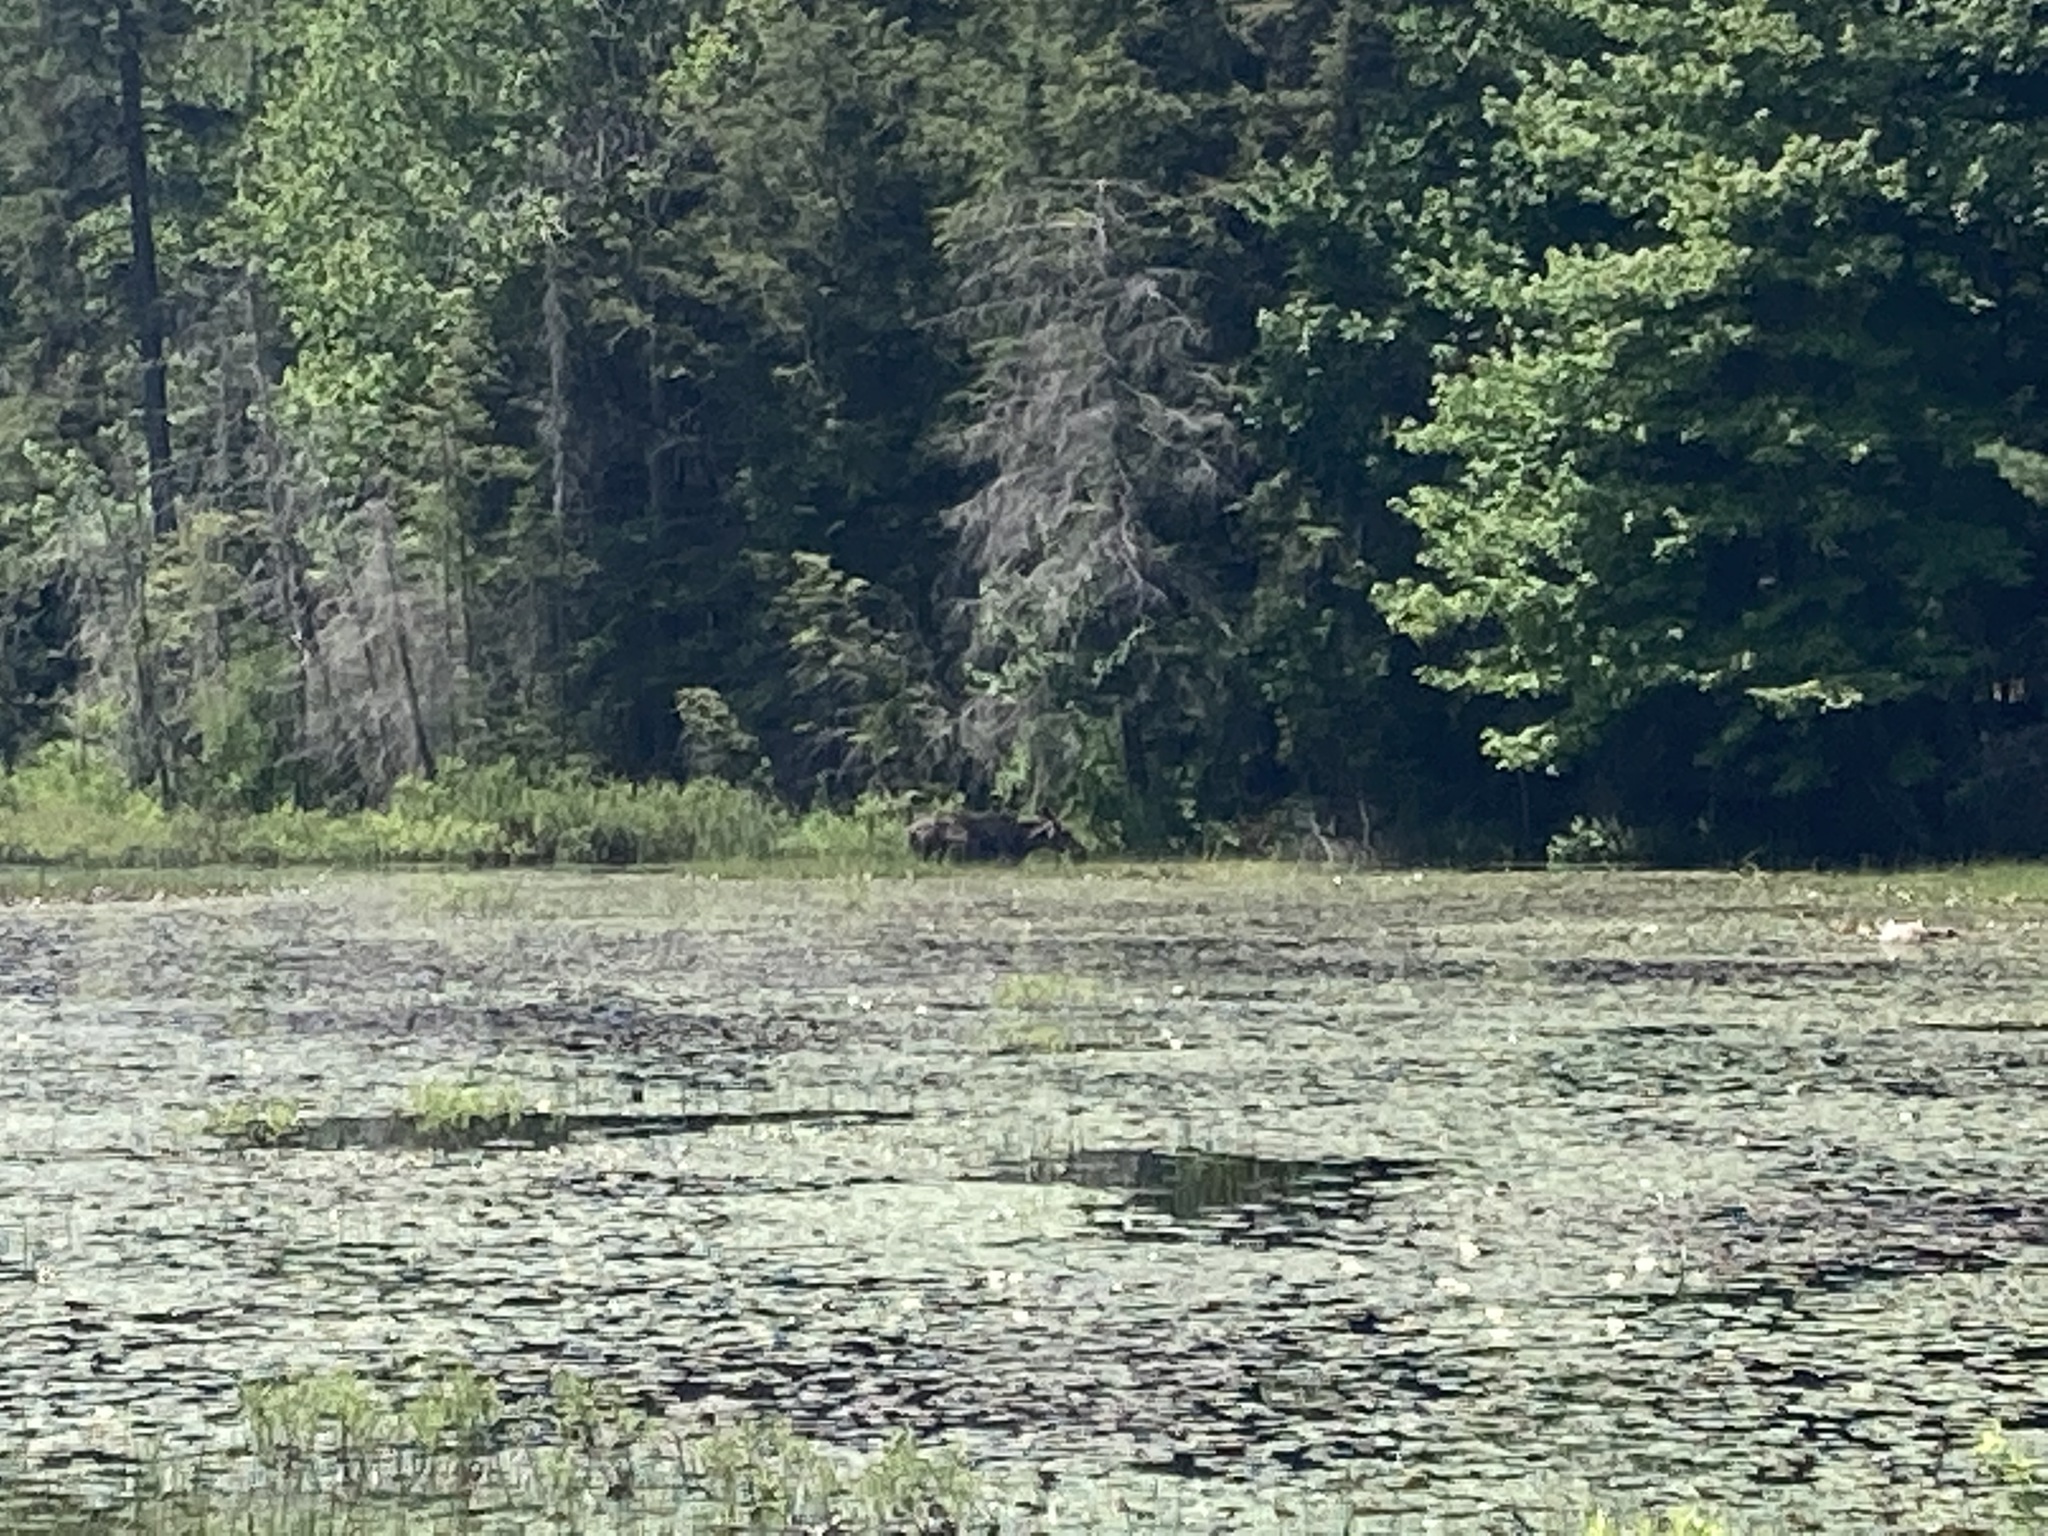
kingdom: Animalia
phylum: Chordata
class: Mammalia
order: Artiodactyla
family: Cervidae
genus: Alces
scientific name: Alces alces
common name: Moose
